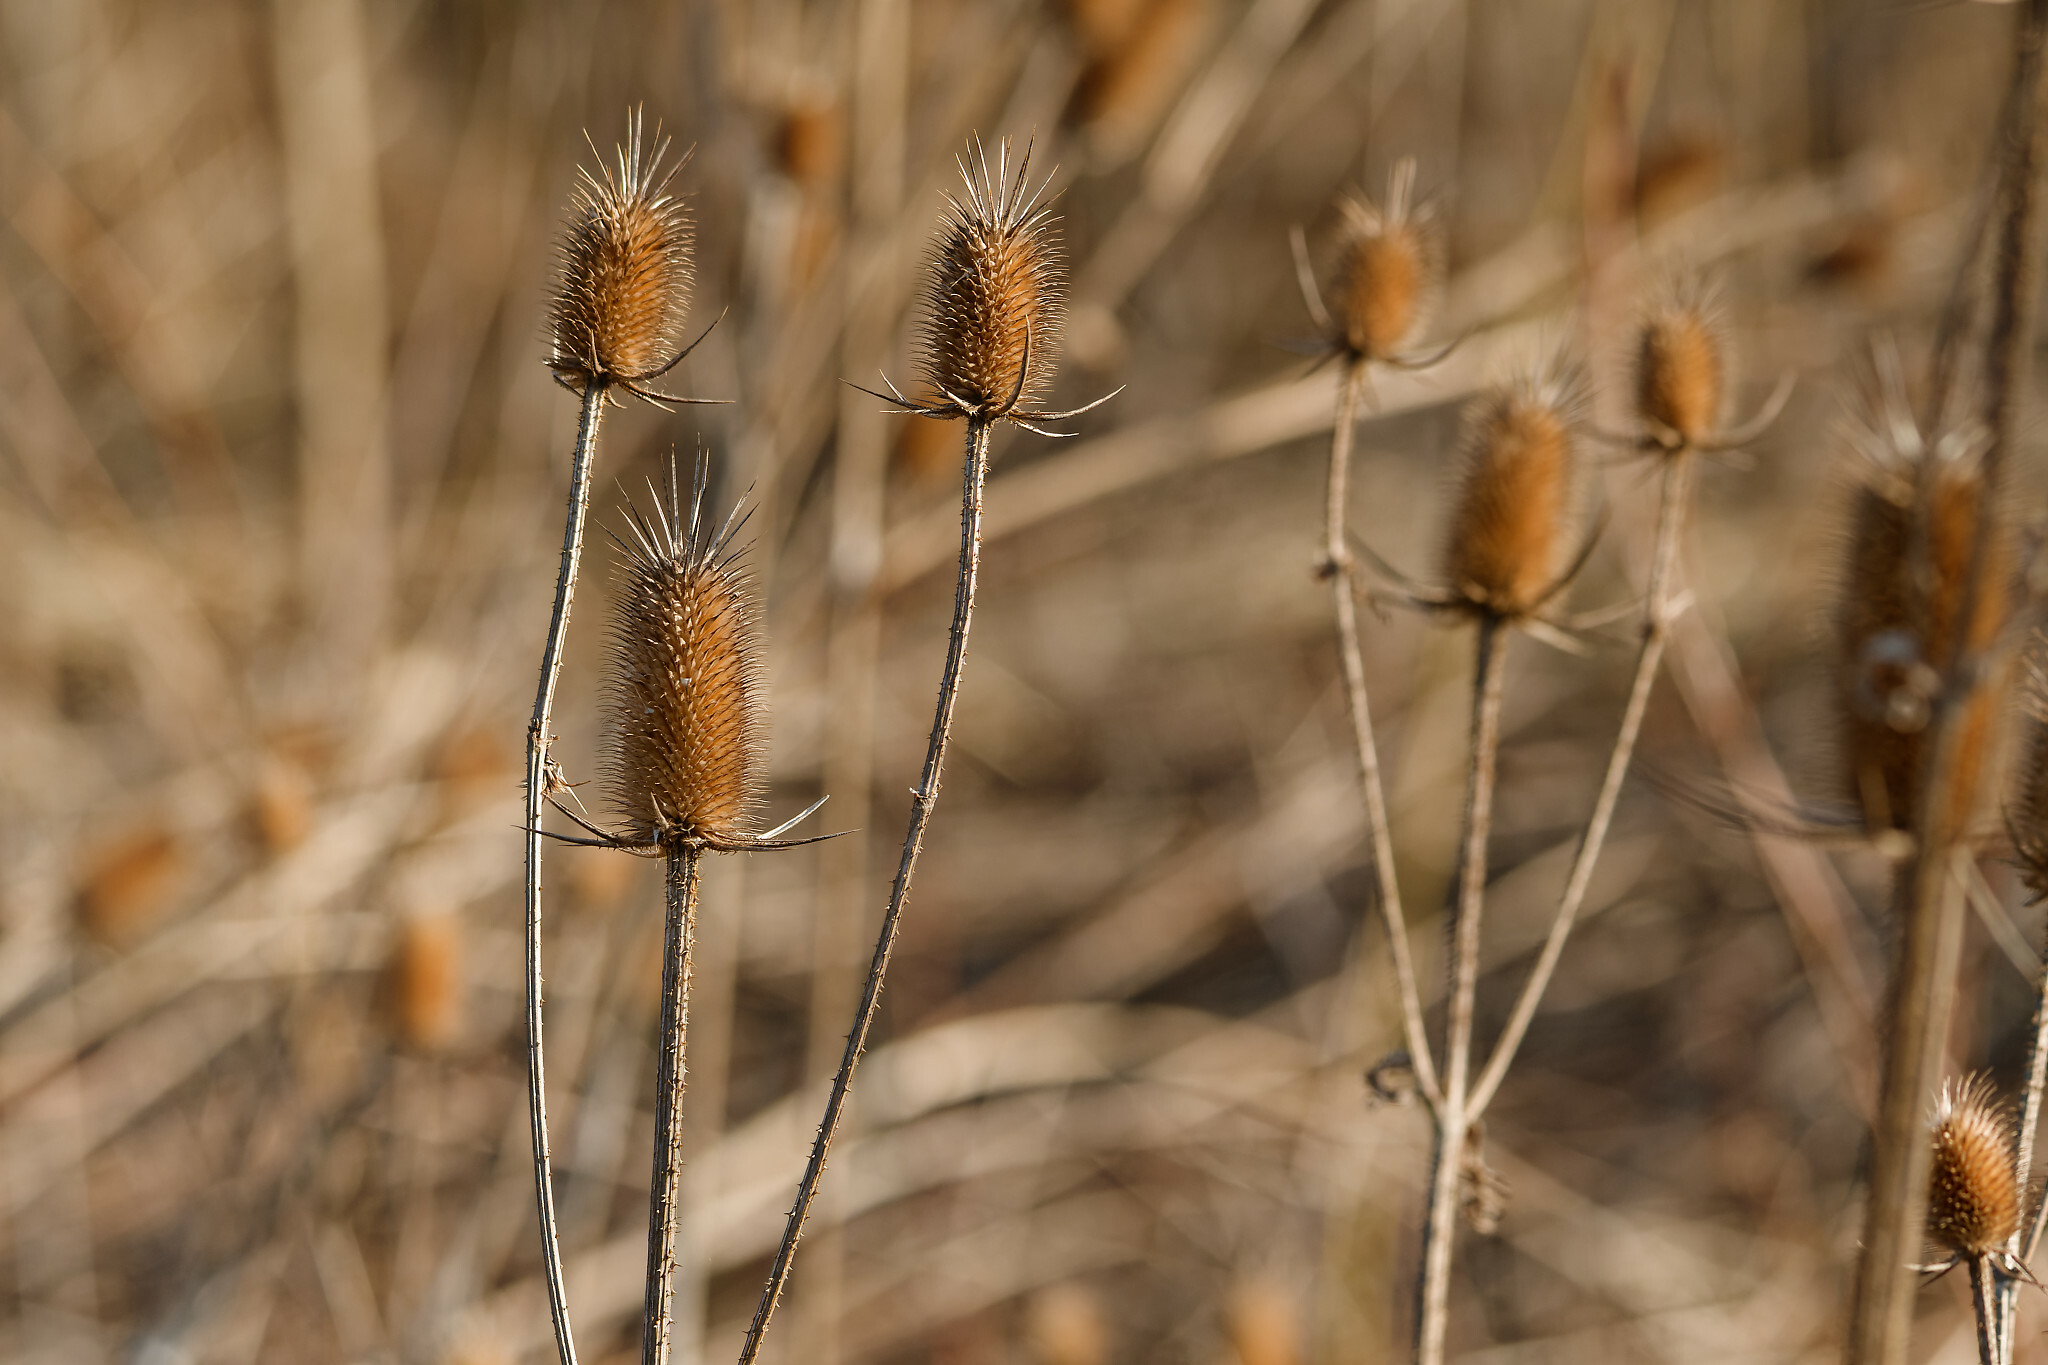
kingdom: Plantae
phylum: Tracheophyta
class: Magnoliopsida
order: Dipsacales
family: Caprifoliaceae
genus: Dipsacus
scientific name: Dipsacus laciniatus
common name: Cut-leaved teasel
